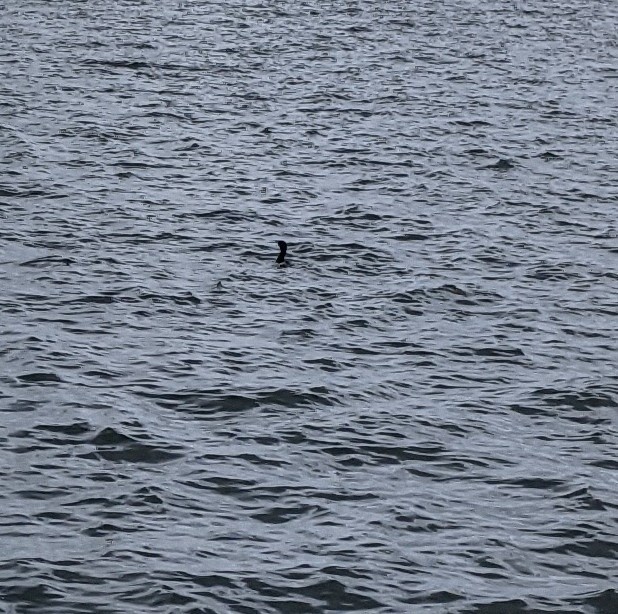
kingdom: Animalia
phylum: Chordata
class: Aves
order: Suliformes
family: Phalacrocoracidae
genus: Phalacrocorax
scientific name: Phalacrocorax auritus
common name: Double-crested cormorant
